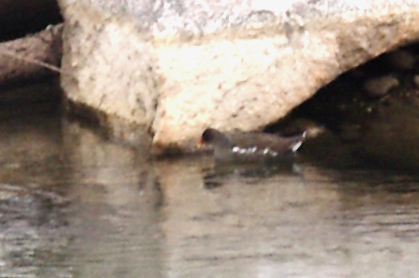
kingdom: Animalia
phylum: Chordata
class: Aves
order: Gruiformes
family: Rallidae
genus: Gallinula
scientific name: Gallinula chloropus
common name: Common moorhen
